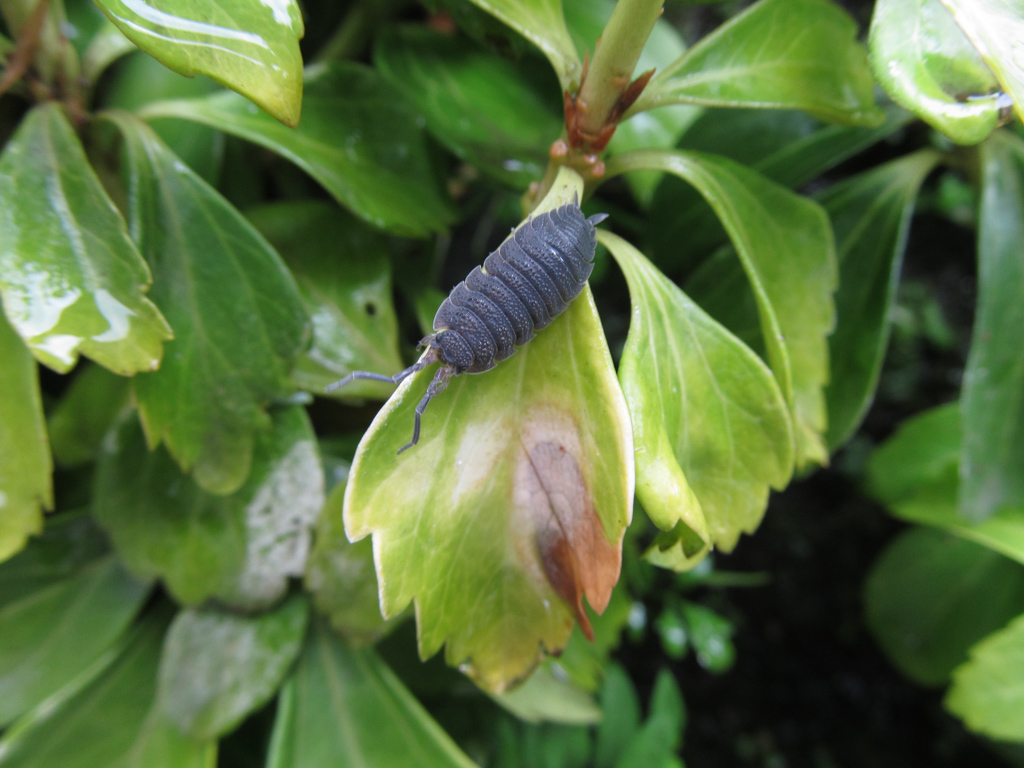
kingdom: Animalia
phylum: Arthropoda
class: Malacostraca
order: Isopoda
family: Porcellionidae
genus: Porcellio
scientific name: Porcellio scaber
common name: Common rough woodlouse
